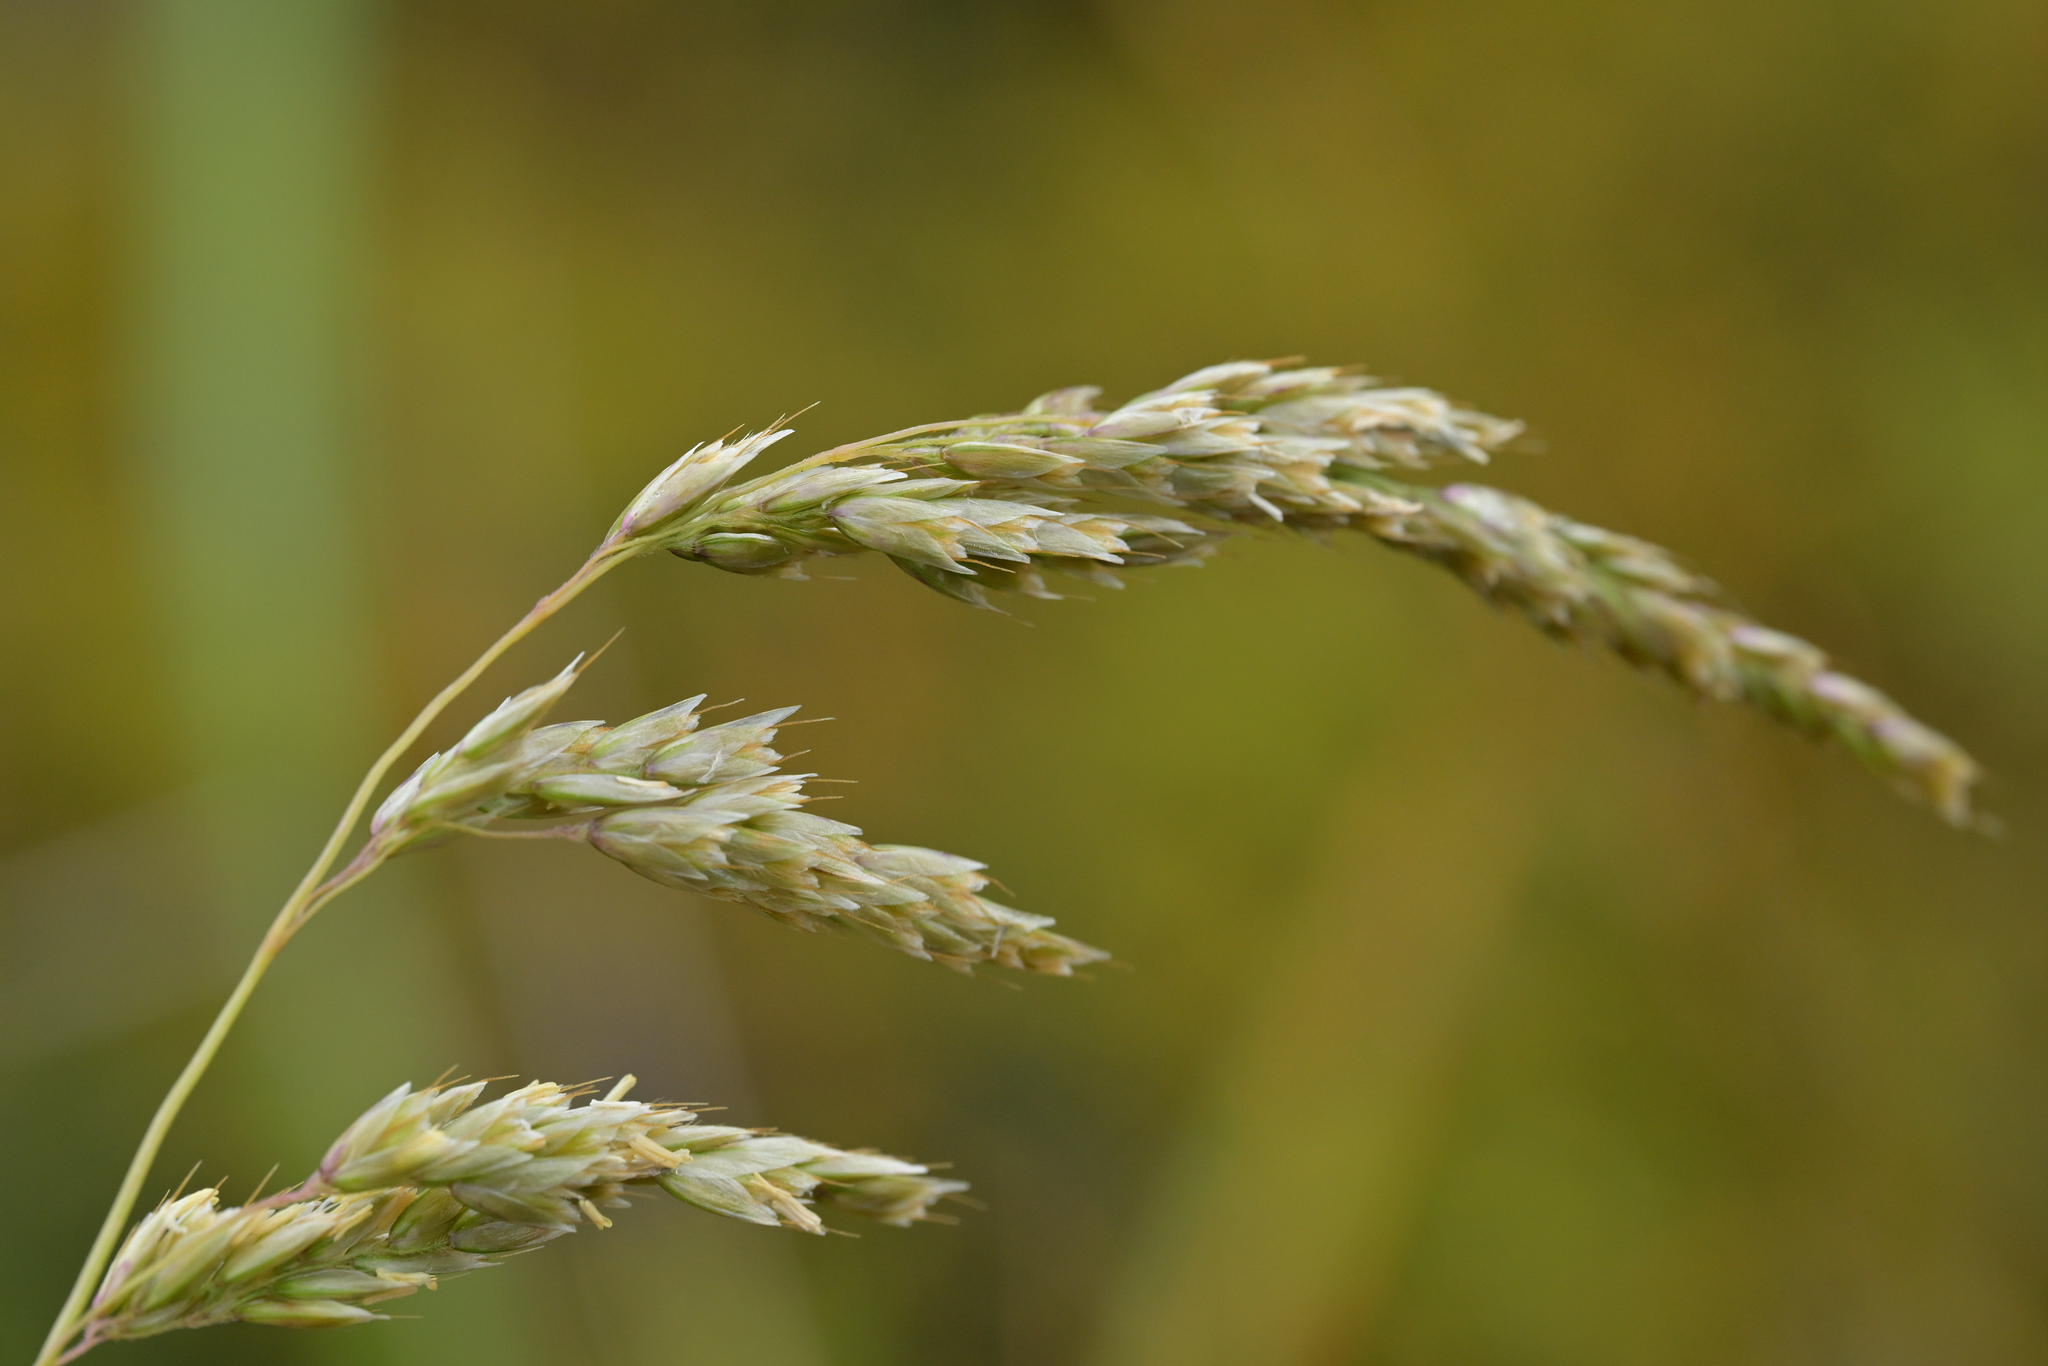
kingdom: Plantae
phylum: Tracheophyta
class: Liliopsida
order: Poales
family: Poaceae
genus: Anthoxanthum
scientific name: Anthoxanthum redolens
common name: Sweet holy grass
